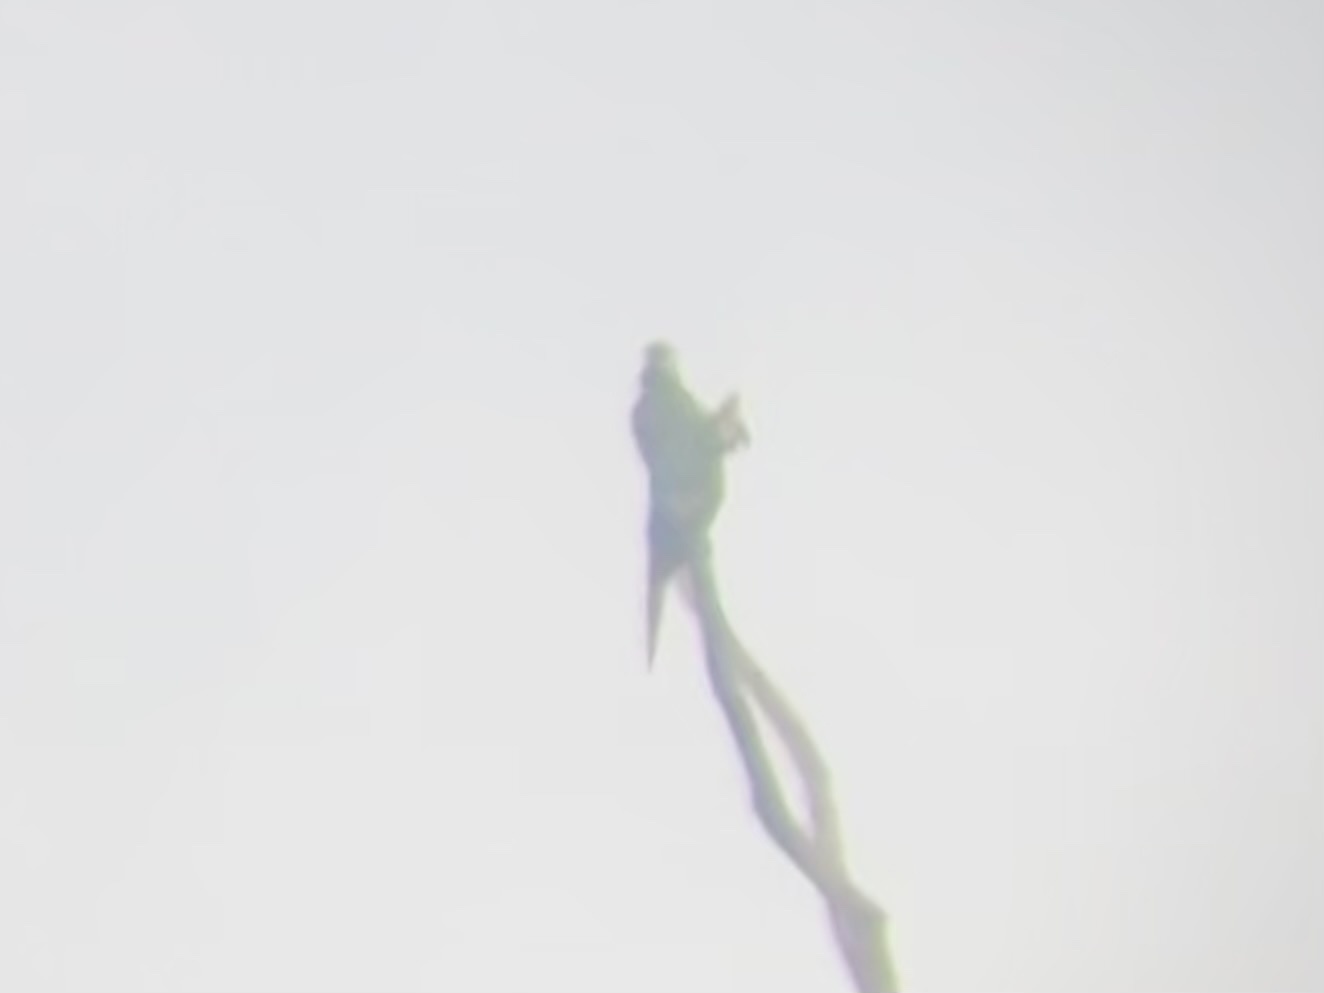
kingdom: Animalia
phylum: Chordata
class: Aves
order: Psittaciformes
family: Psittacidae
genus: Ara
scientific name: Ara severus
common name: Chestnut-fronted macaw
